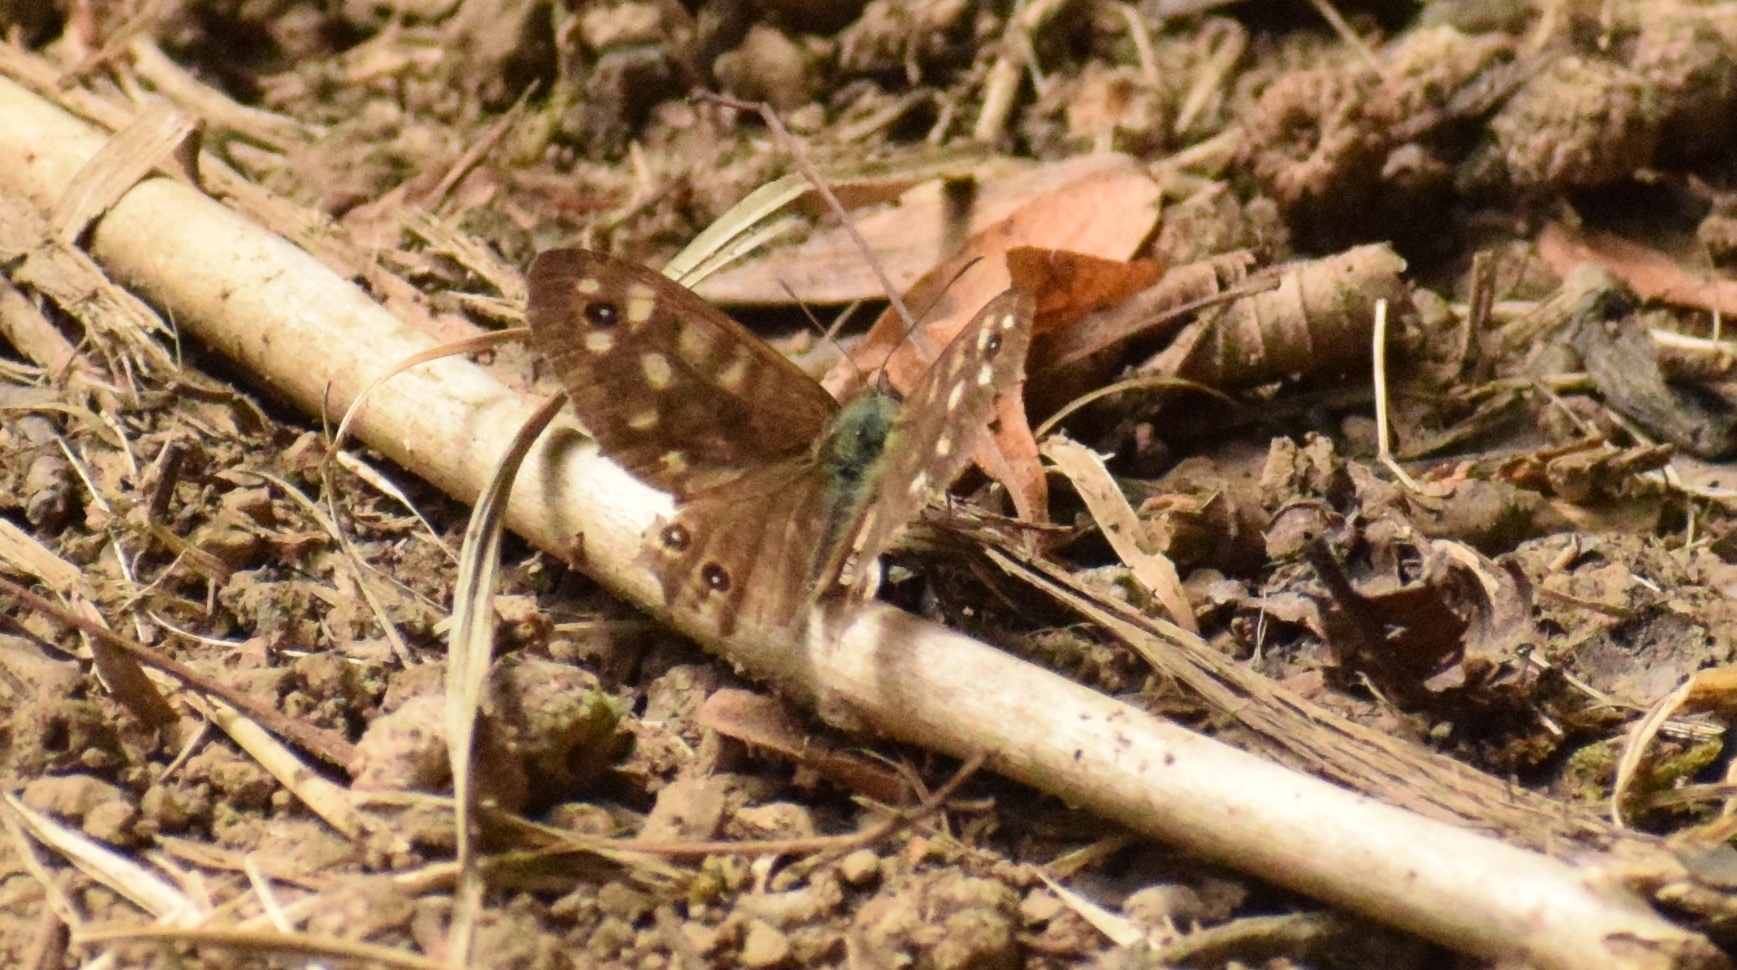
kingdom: Animalia
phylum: Arthropoda
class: Insecta
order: Lepidoptera
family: Nymphalidae
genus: Pararge
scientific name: Pararge aegeria
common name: Speckled wood
